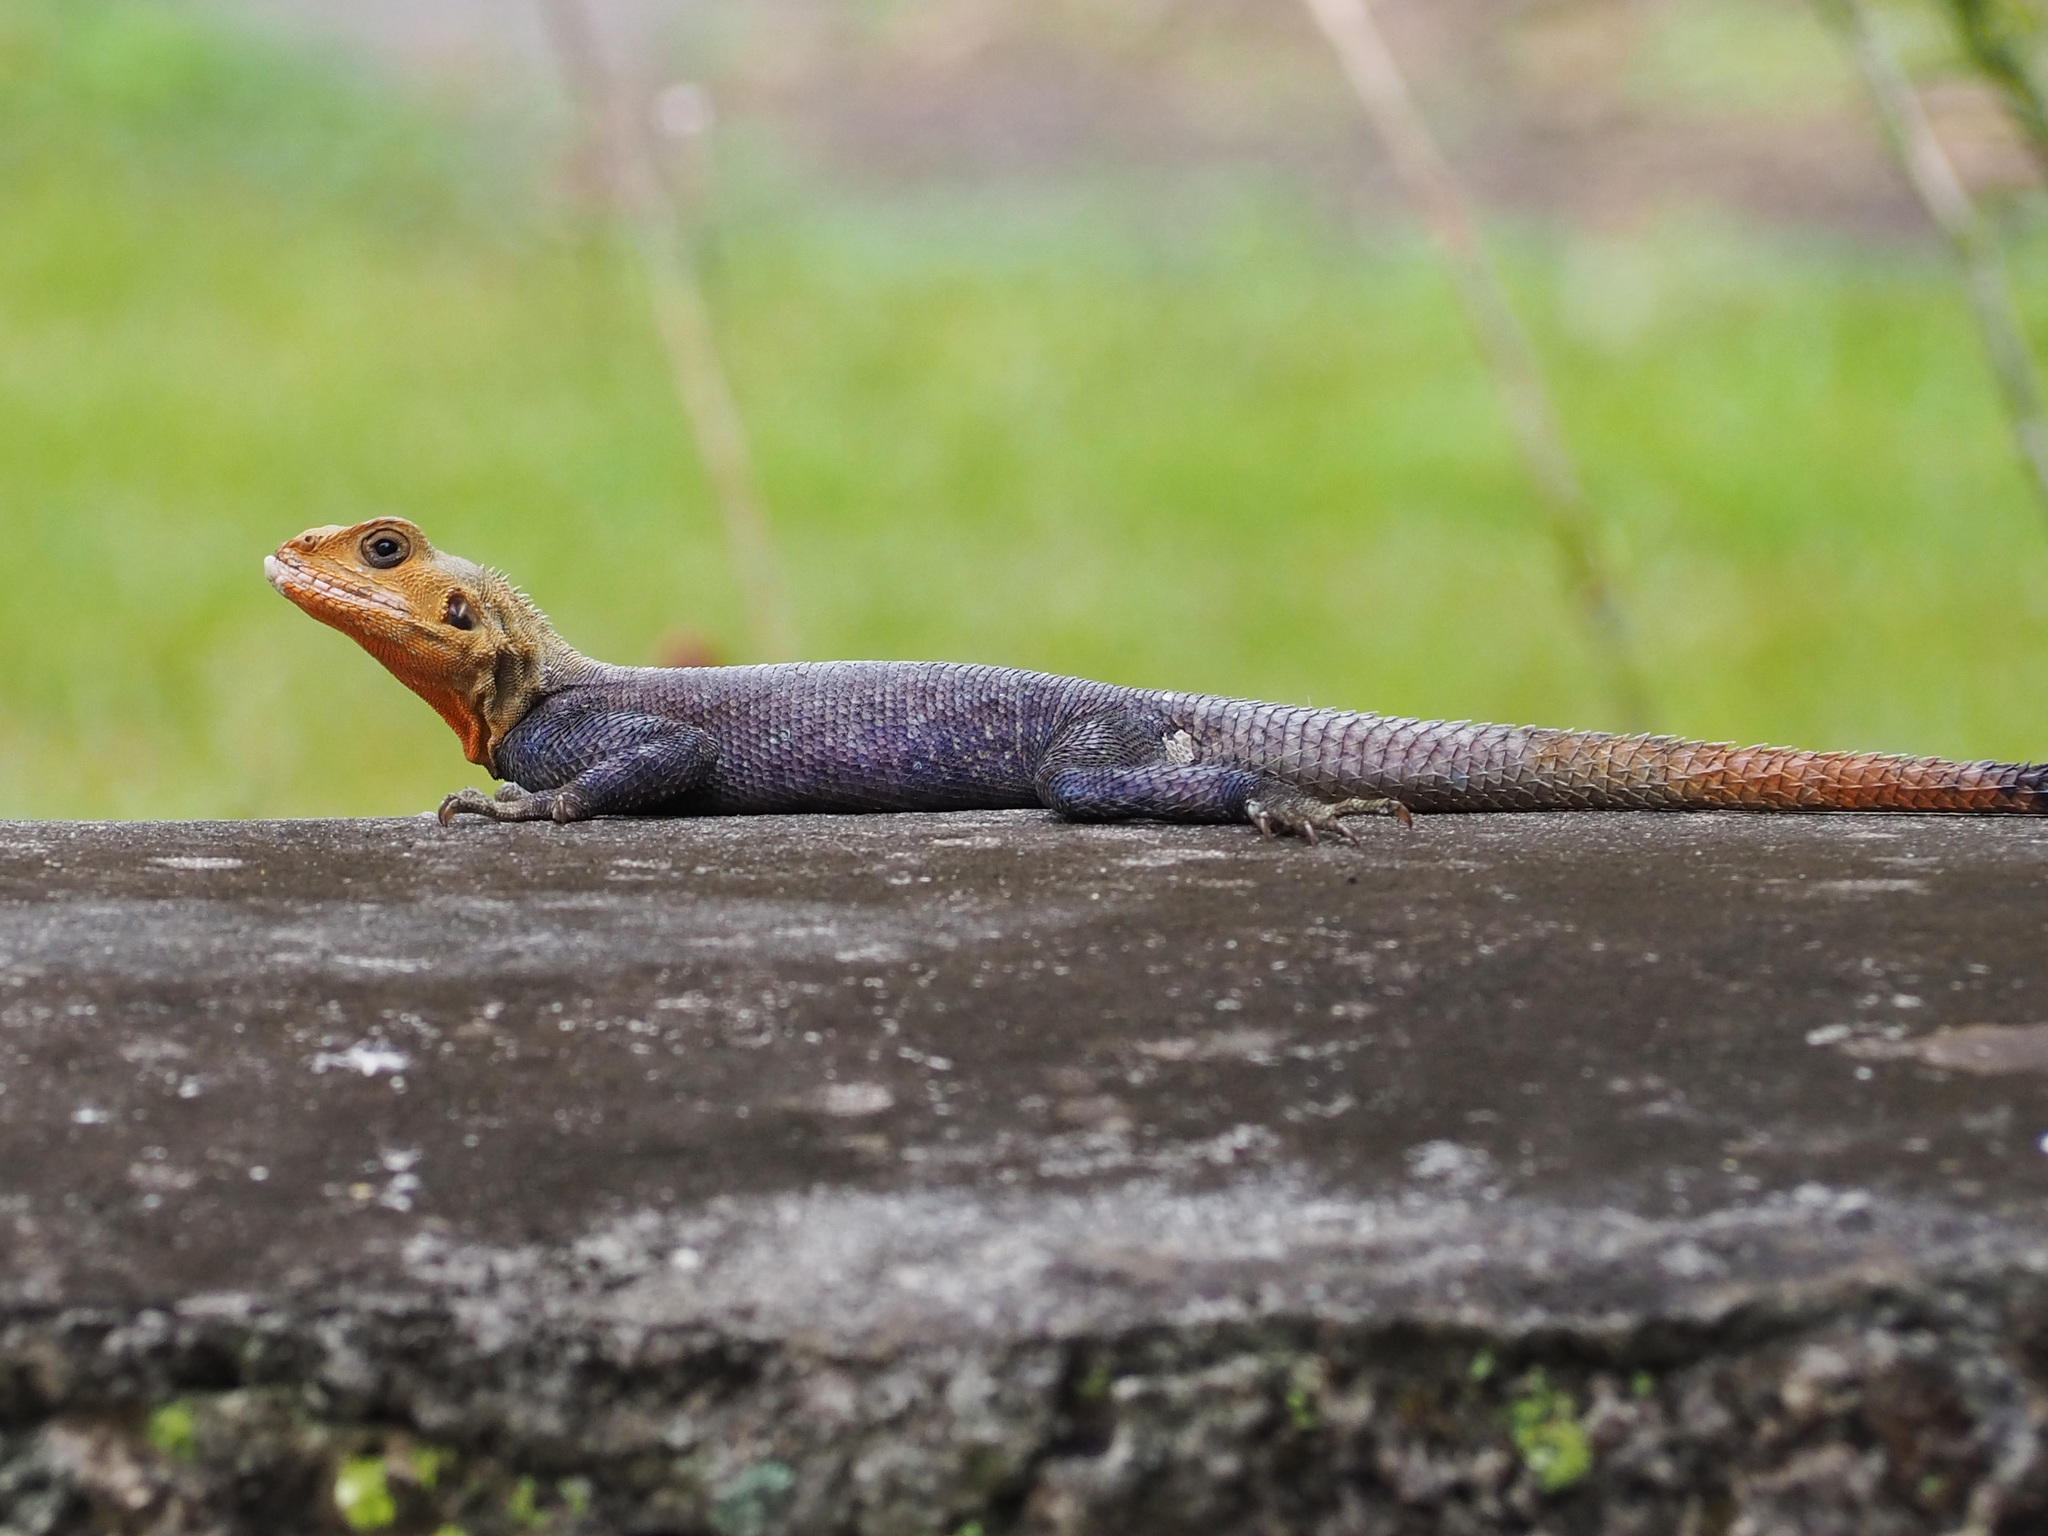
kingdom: Animalia
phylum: Chordata
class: Squamata
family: Agamidae
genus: Agama
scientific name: Agama picticauda
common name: Red-headed agama
